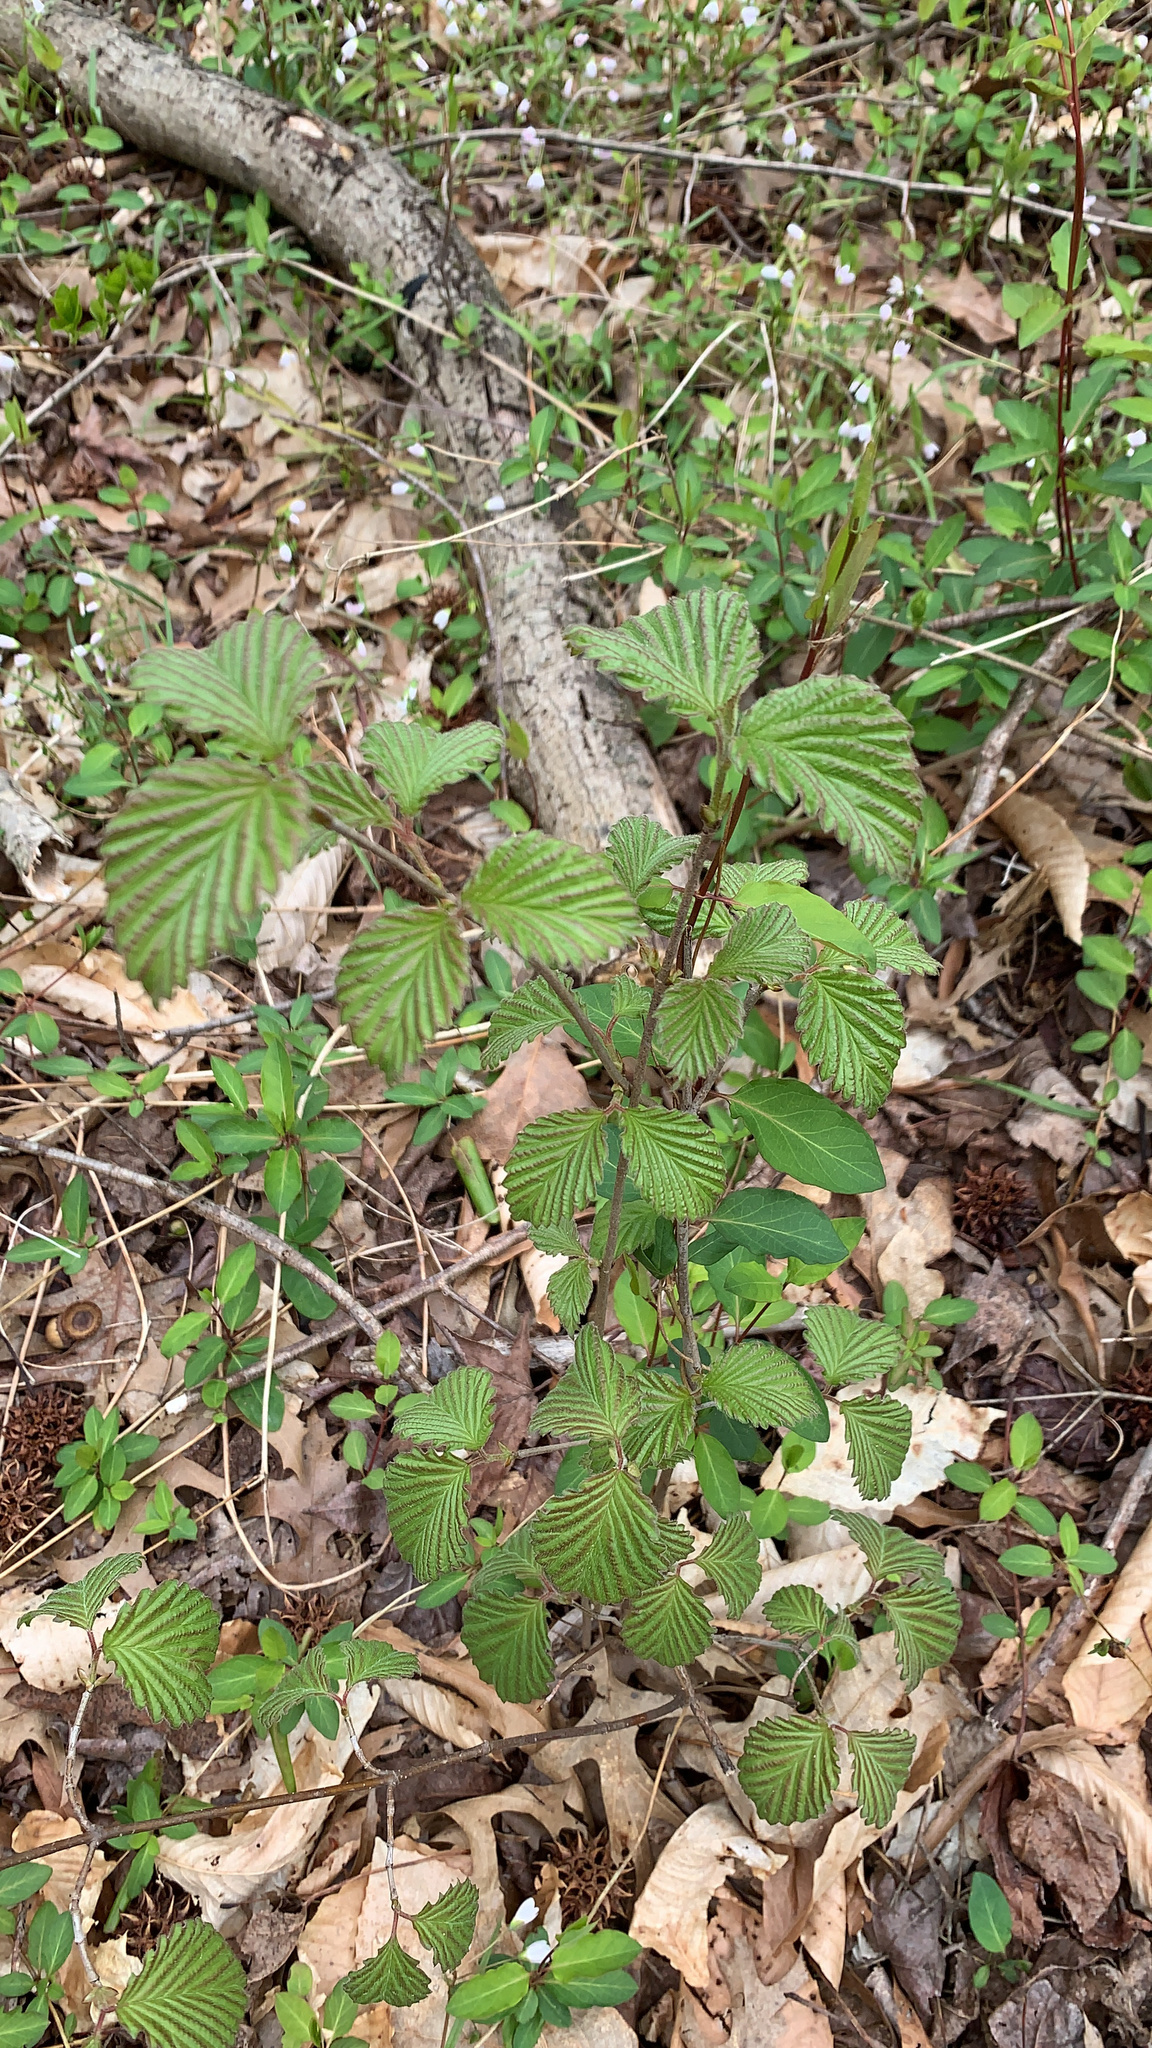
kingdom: Plantae
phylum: Tracheophyta
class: Magnoliopsida
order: Dipsacales
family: Viburnaceae
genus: Viburnum
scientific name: Viburnum dentatum
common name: Arrow-wood
